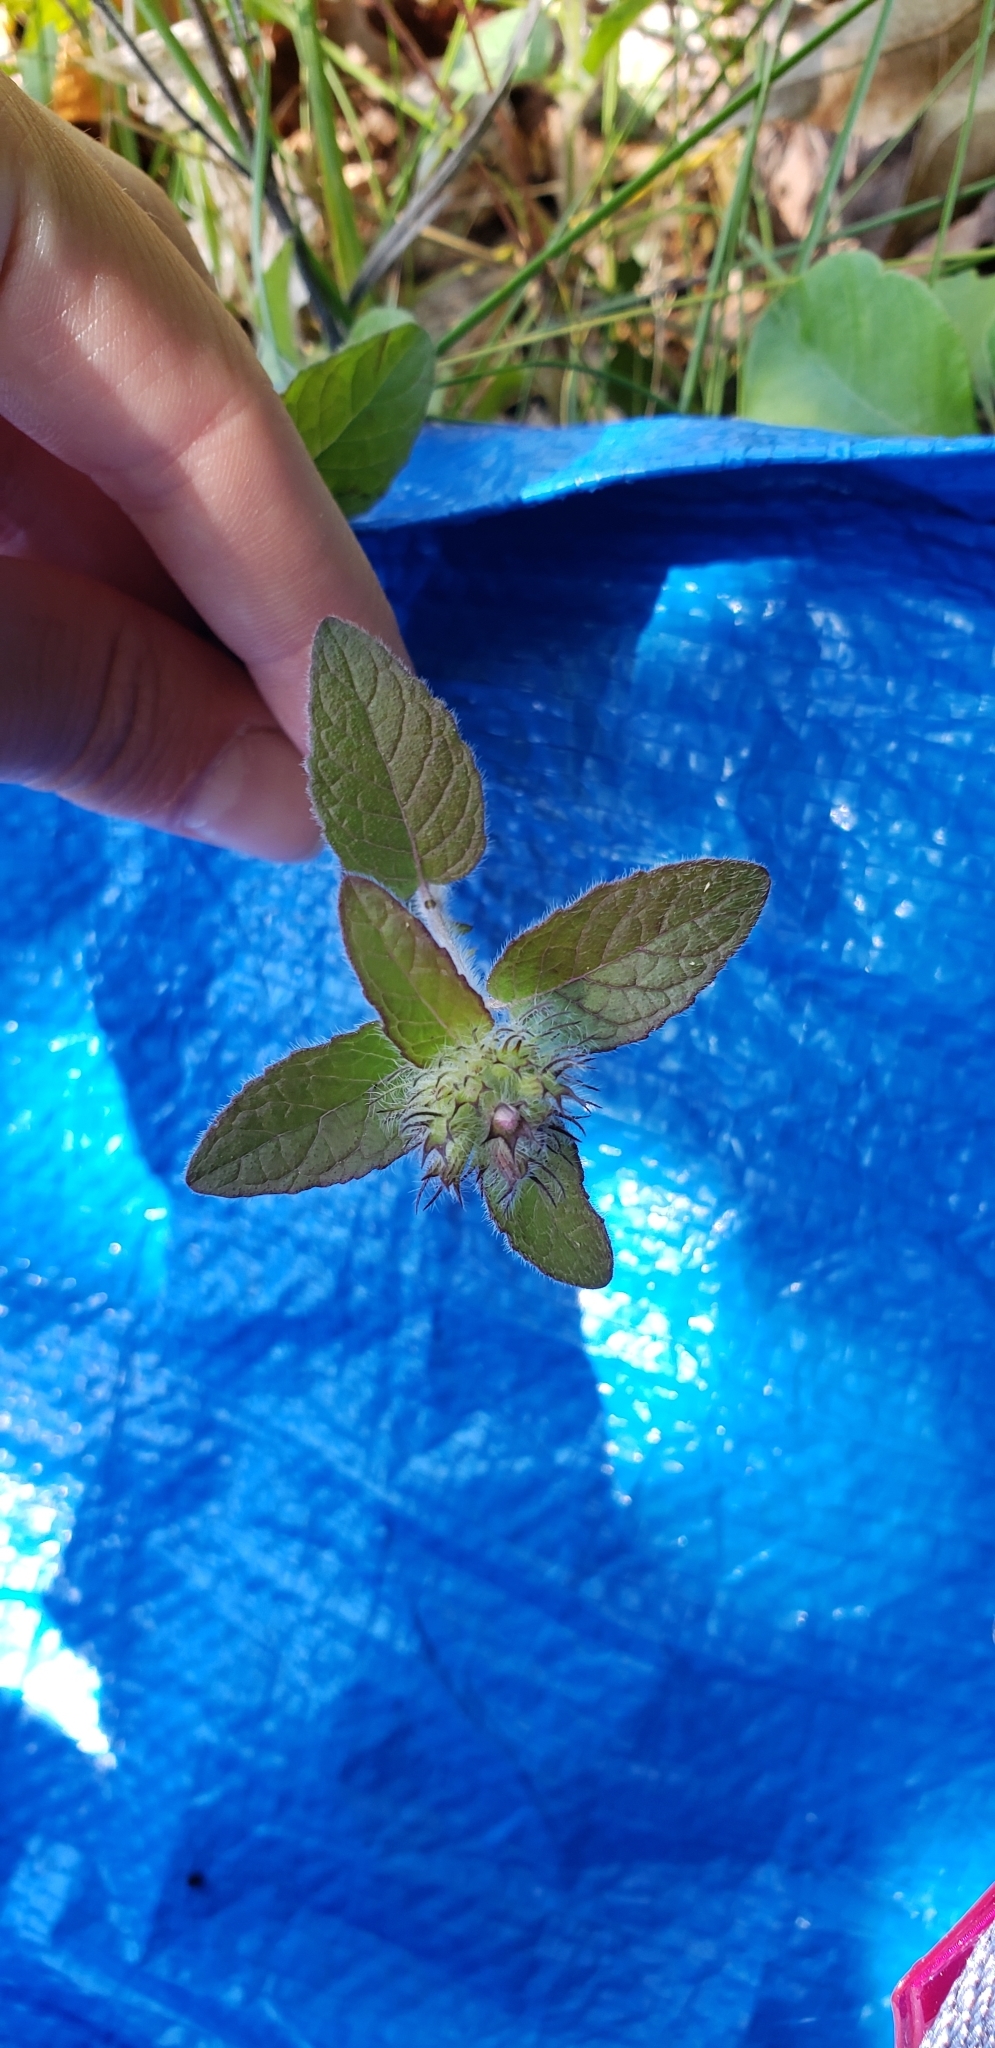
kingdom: Plantae
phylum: Tracheophyta
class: Magnoliopsida
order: Lamiales
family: Lamiaceae
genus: Clinopodium
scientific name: Clinopodium vulgare
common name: Wild basil
